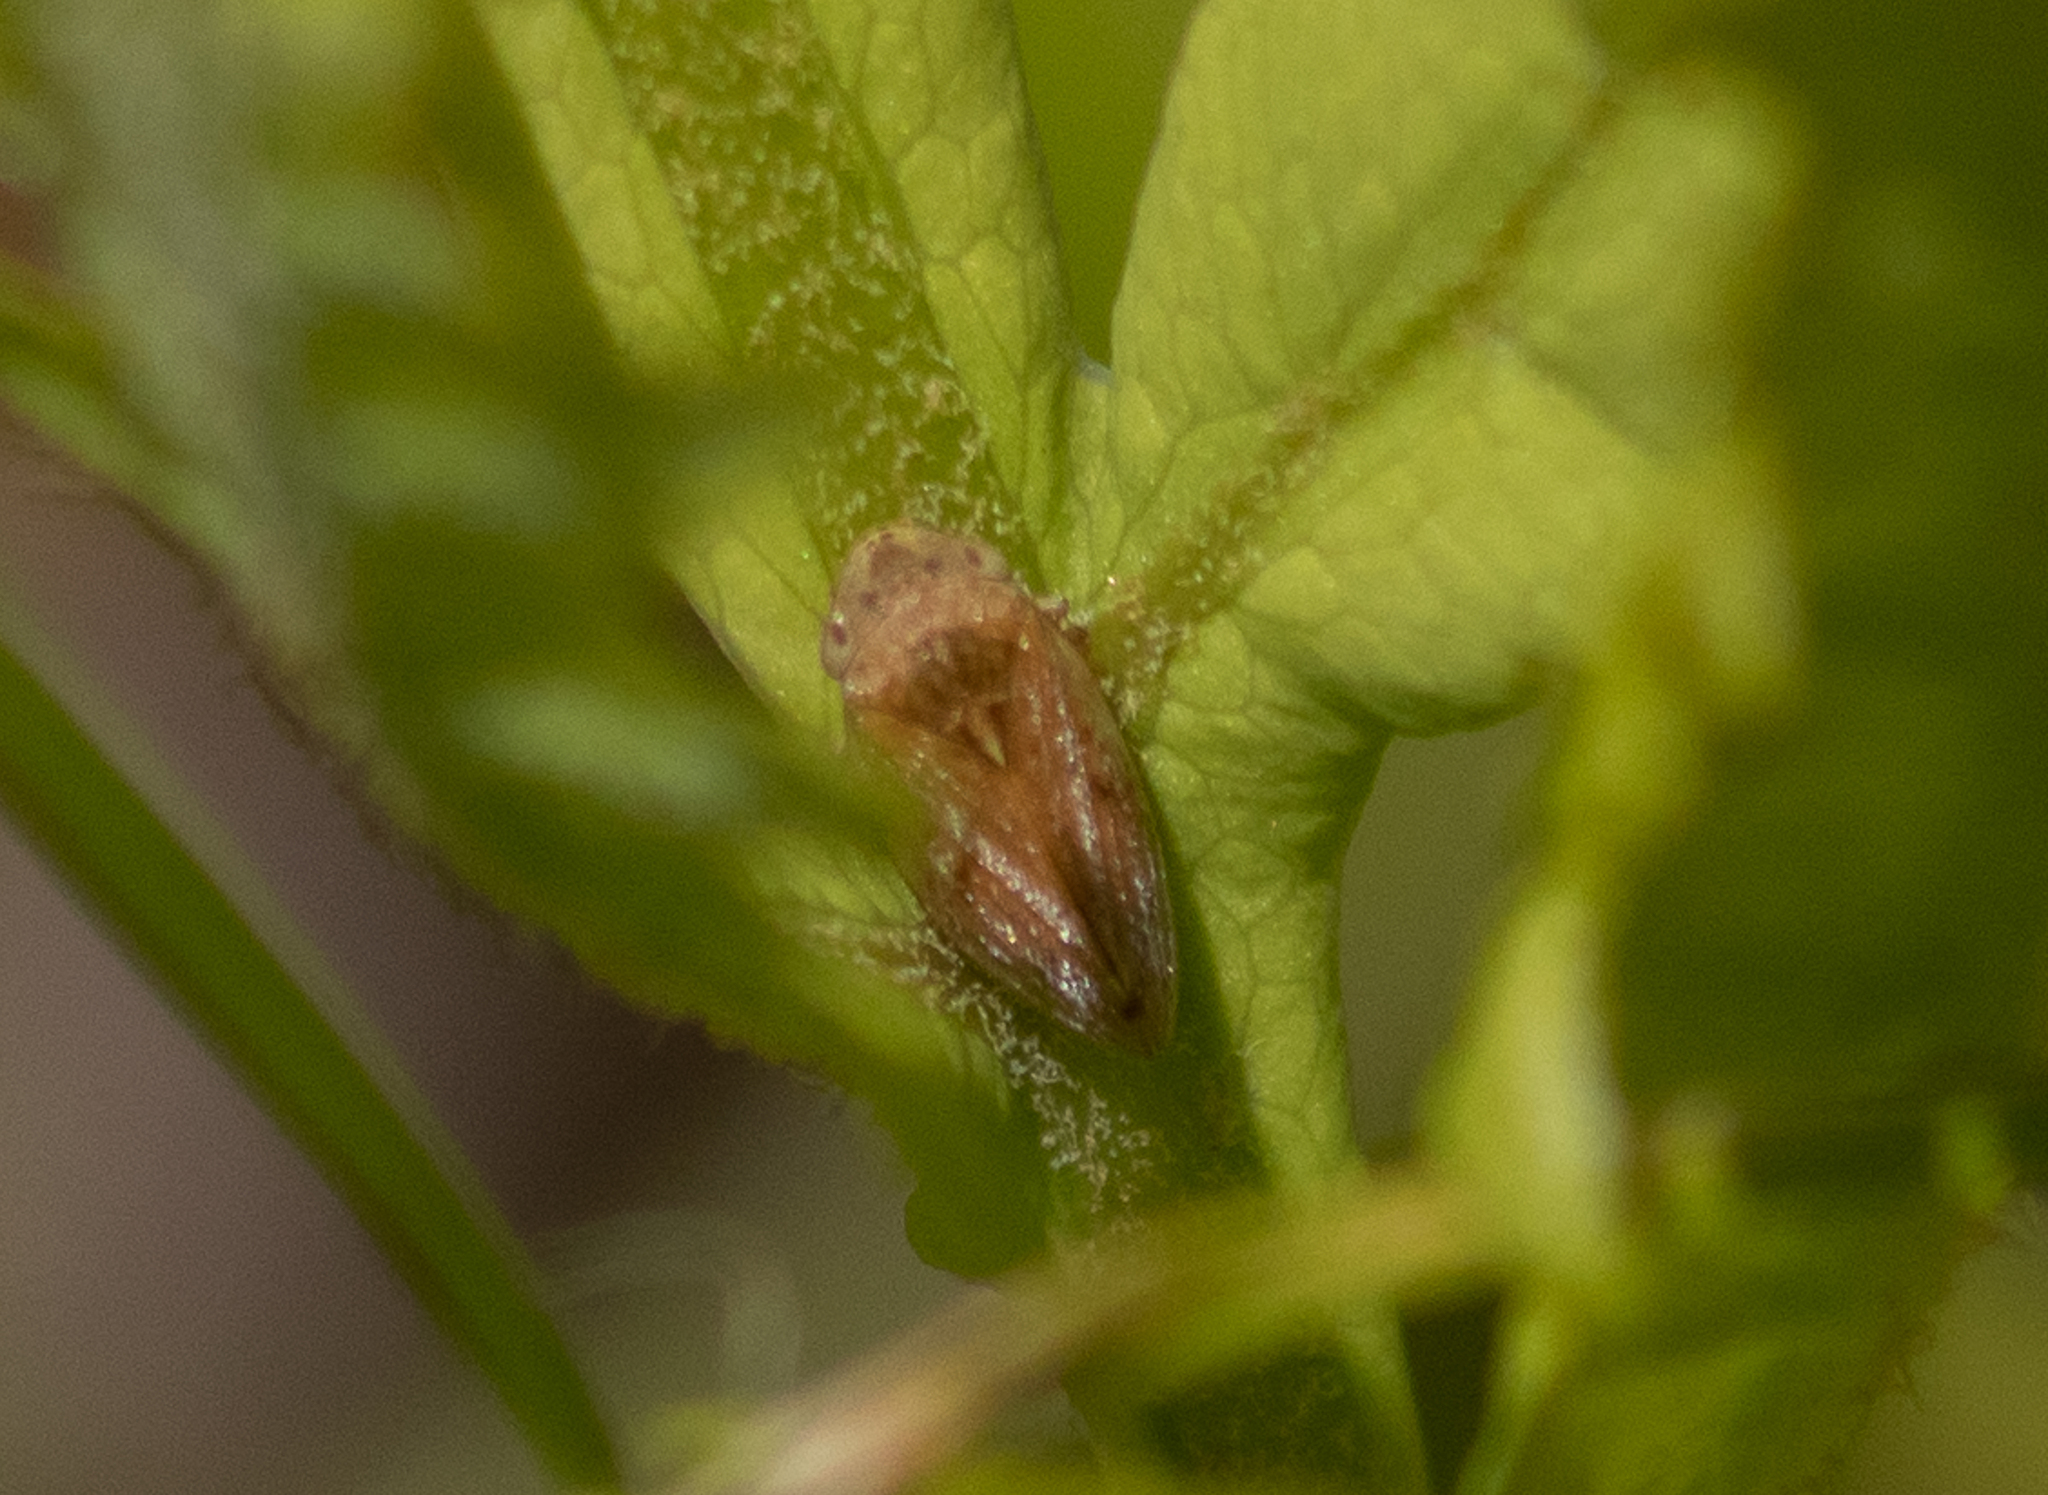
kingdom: Animalia
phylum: Arthropoda
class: Insecta
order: Hemiptera
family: Aphrophoridae
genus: Philaenus
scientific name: Philaenus spumarius
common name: Meadow spittlebug
